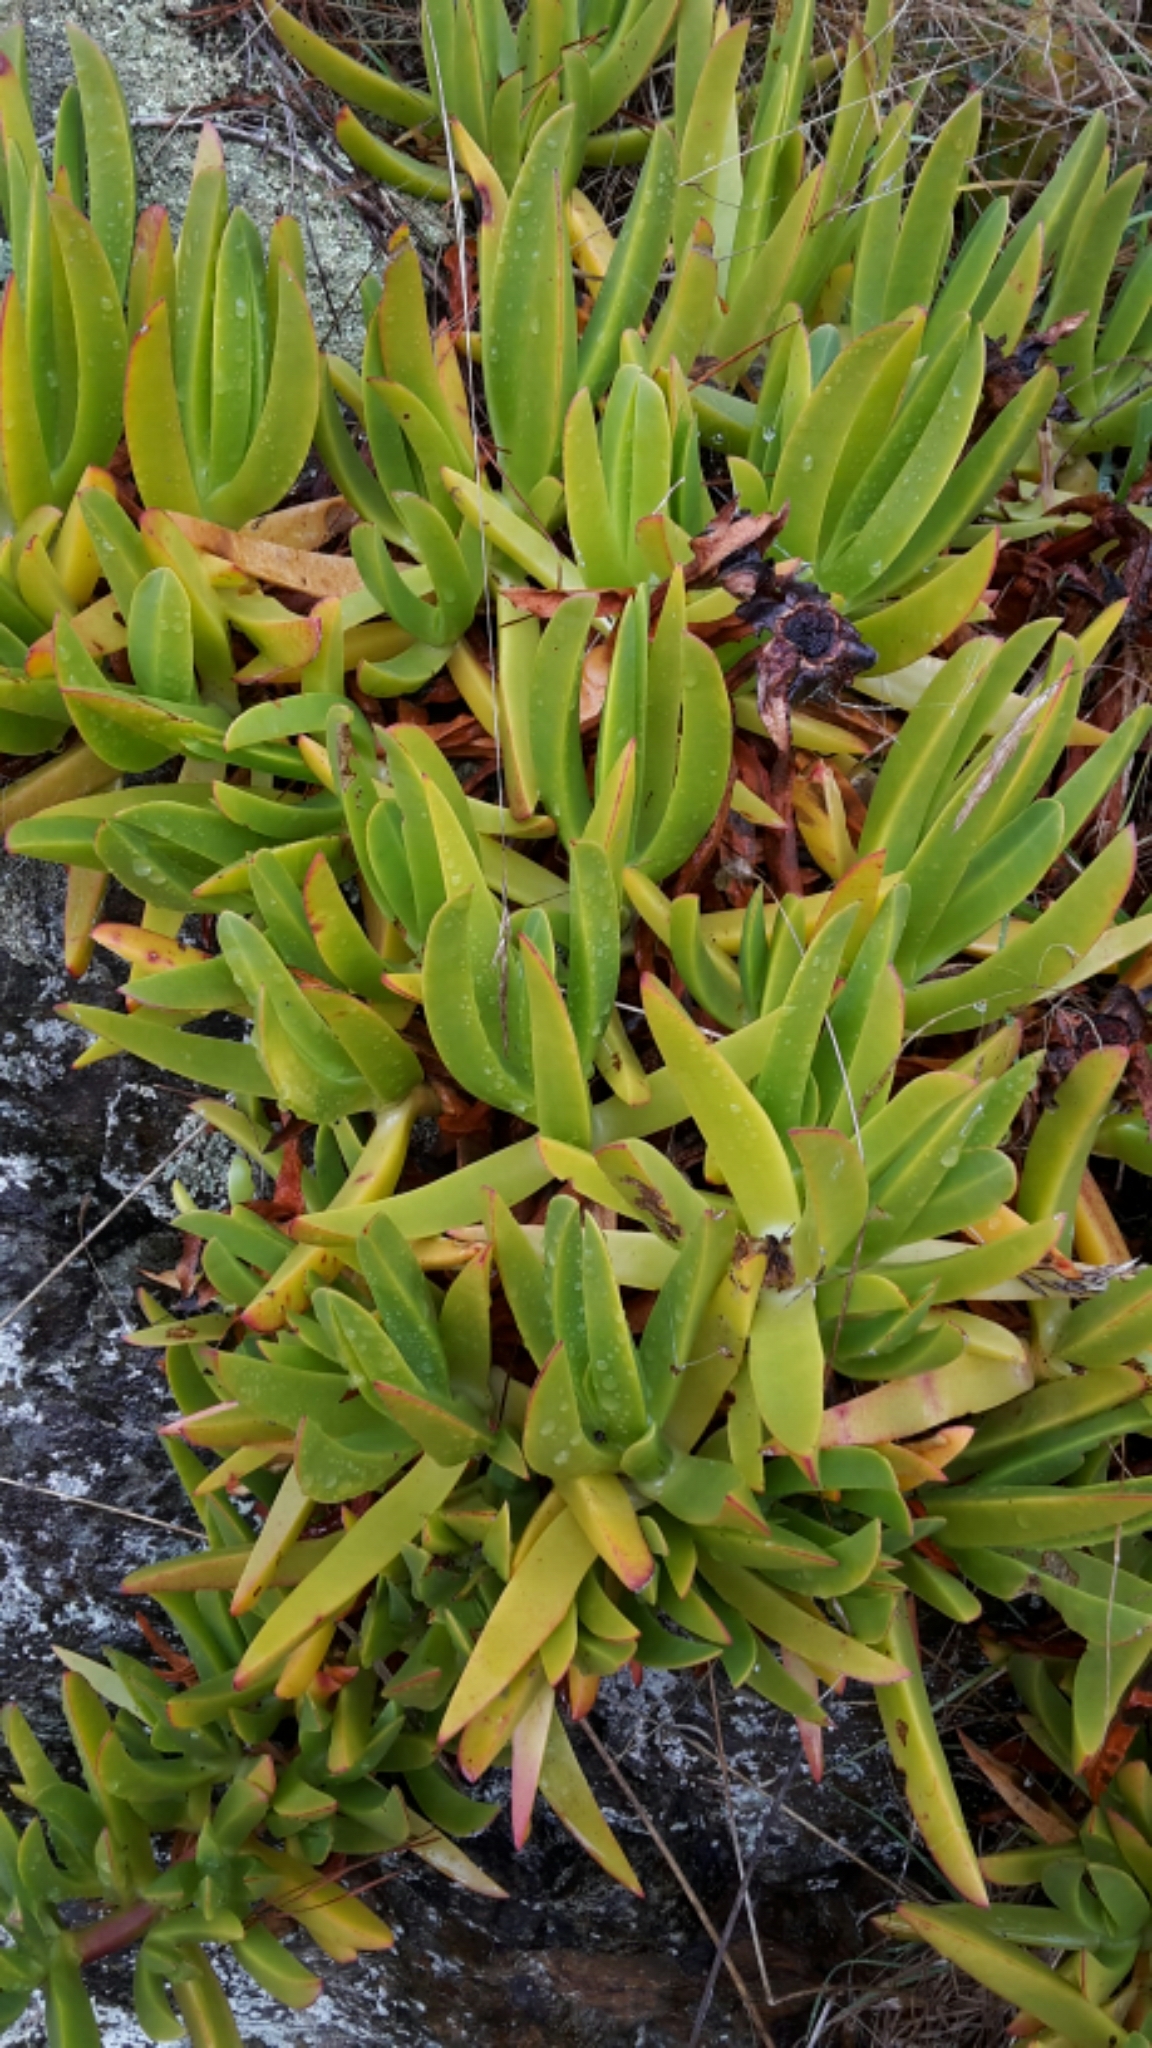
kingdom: Plantae
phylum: Tracheophyta
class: Magnoliopsida
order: Caryophyllales
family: Aizoaceae
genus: Carpobrotus
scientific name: Carpobrotus edulis
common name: Hottentot-fig
